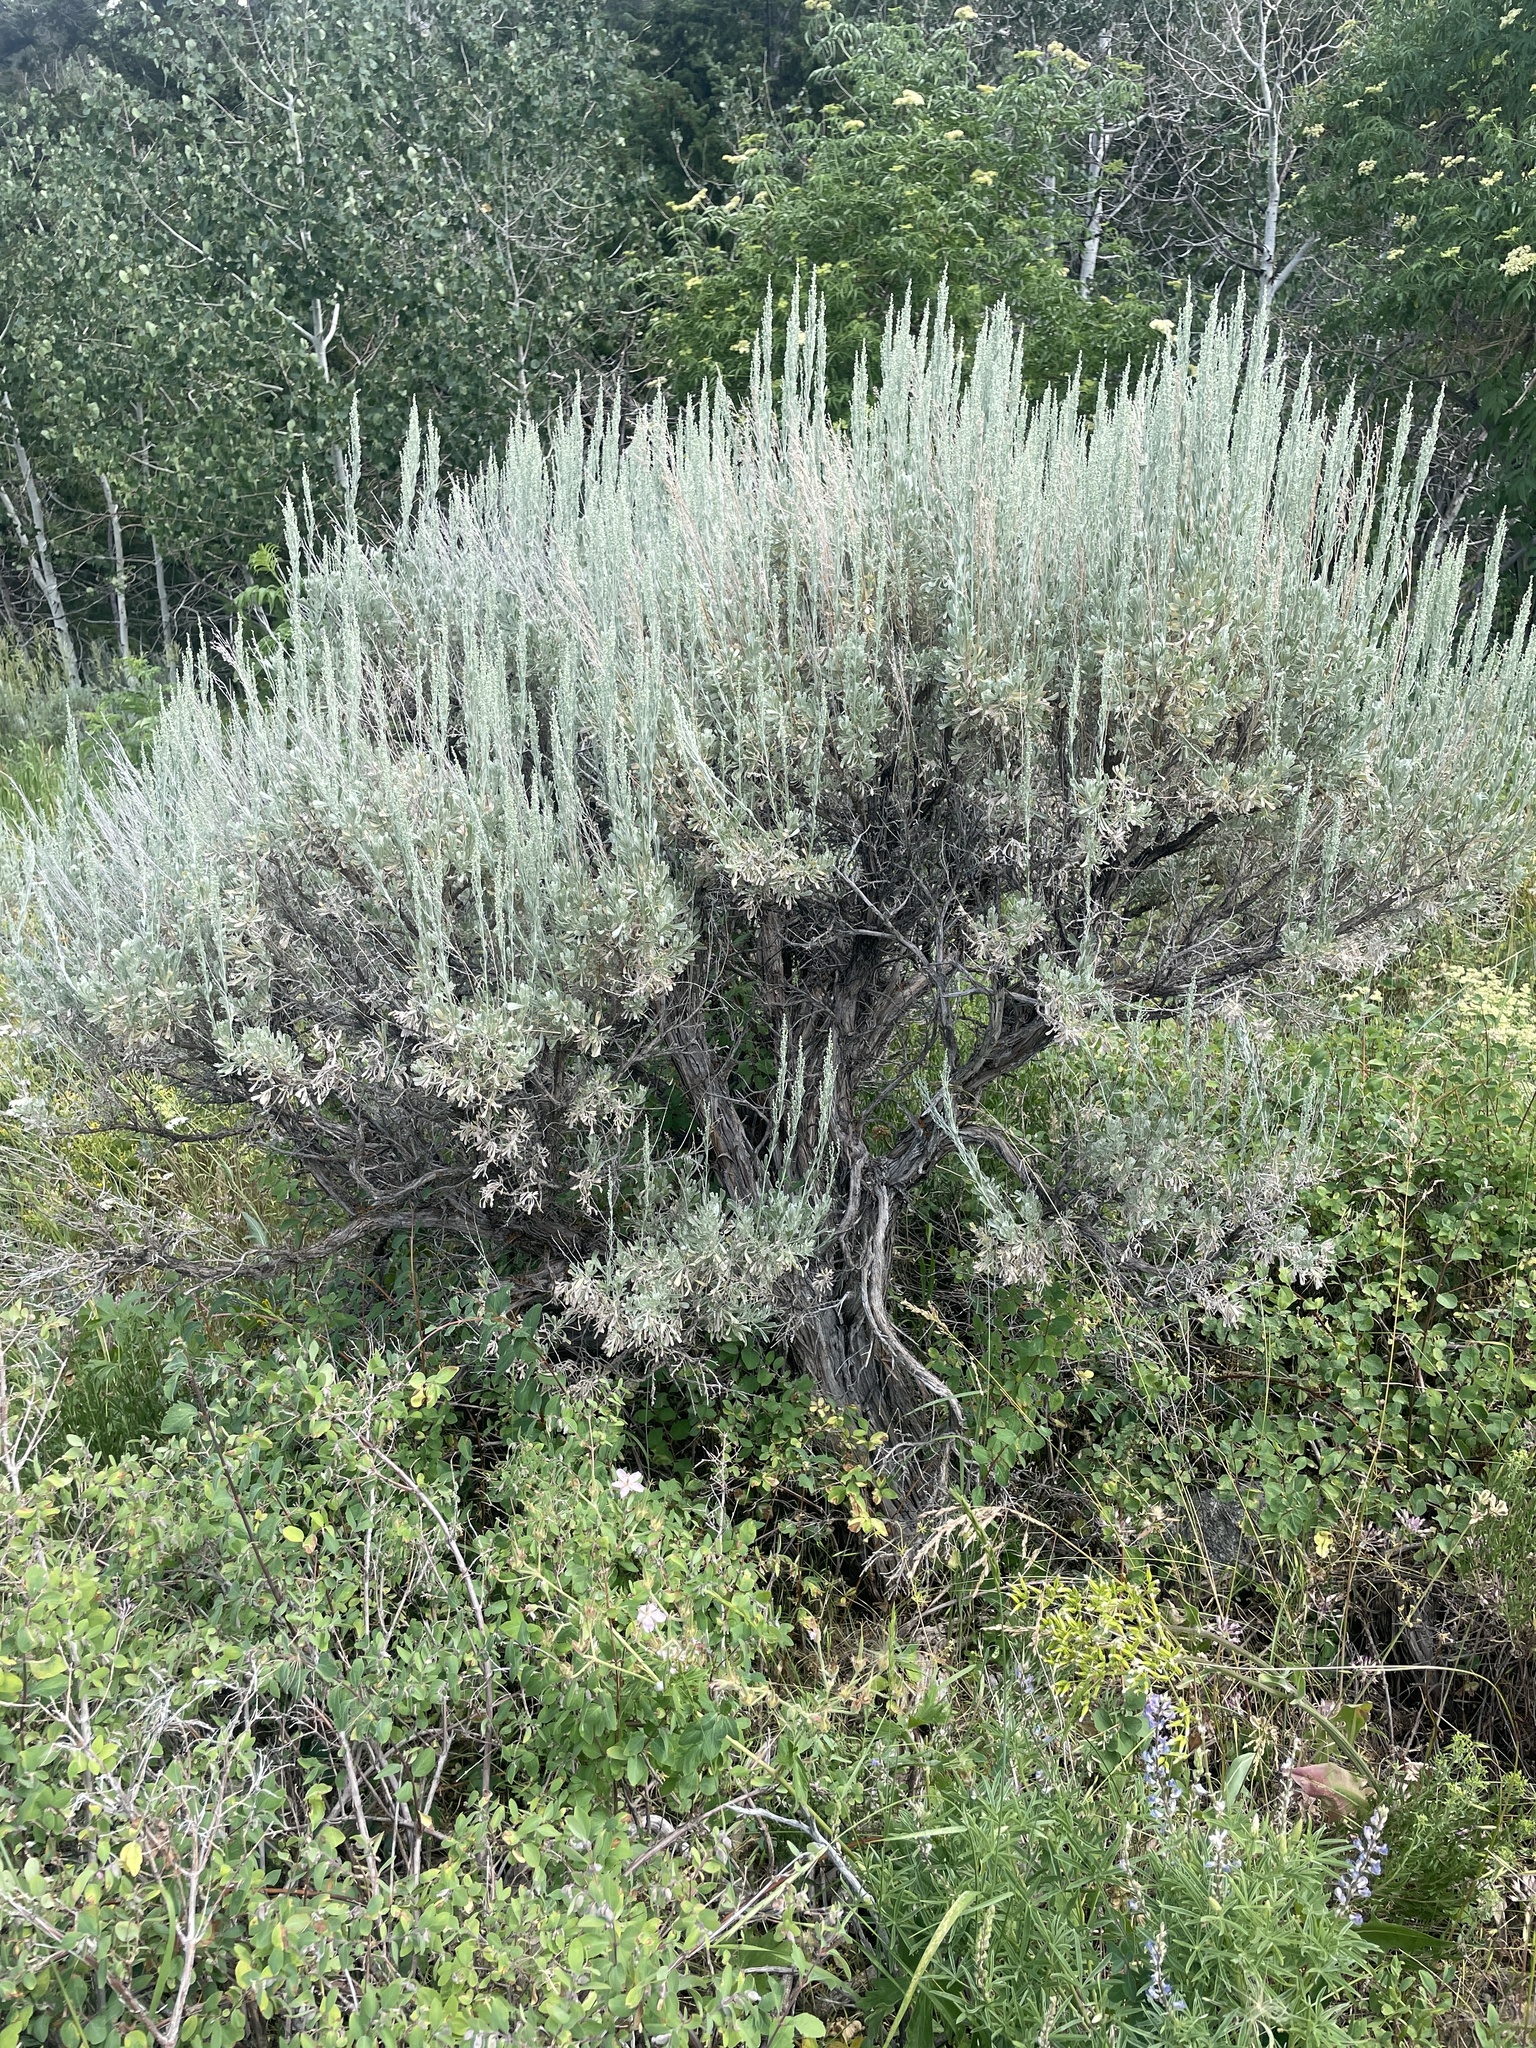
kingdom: Plantae
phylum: Tracheophyta
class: Magnoliopsida
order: Asterales
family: Asteraceae
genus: Artemisia
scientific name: Artemisia tridentata
